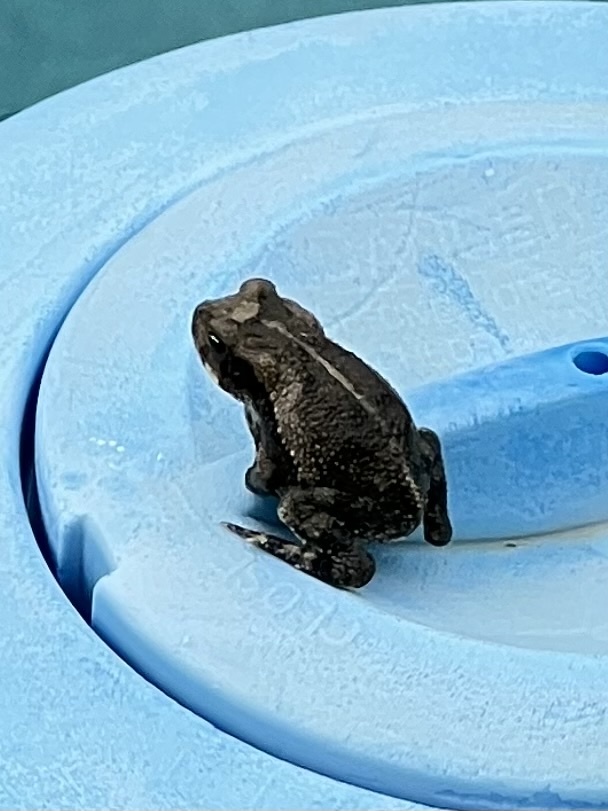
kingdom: Animalia
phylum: Chordata
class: Amphibia
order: Anura
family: Bufonidae
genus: Incilius
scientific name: Incilius nebulifer
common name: Gulf coast toad
